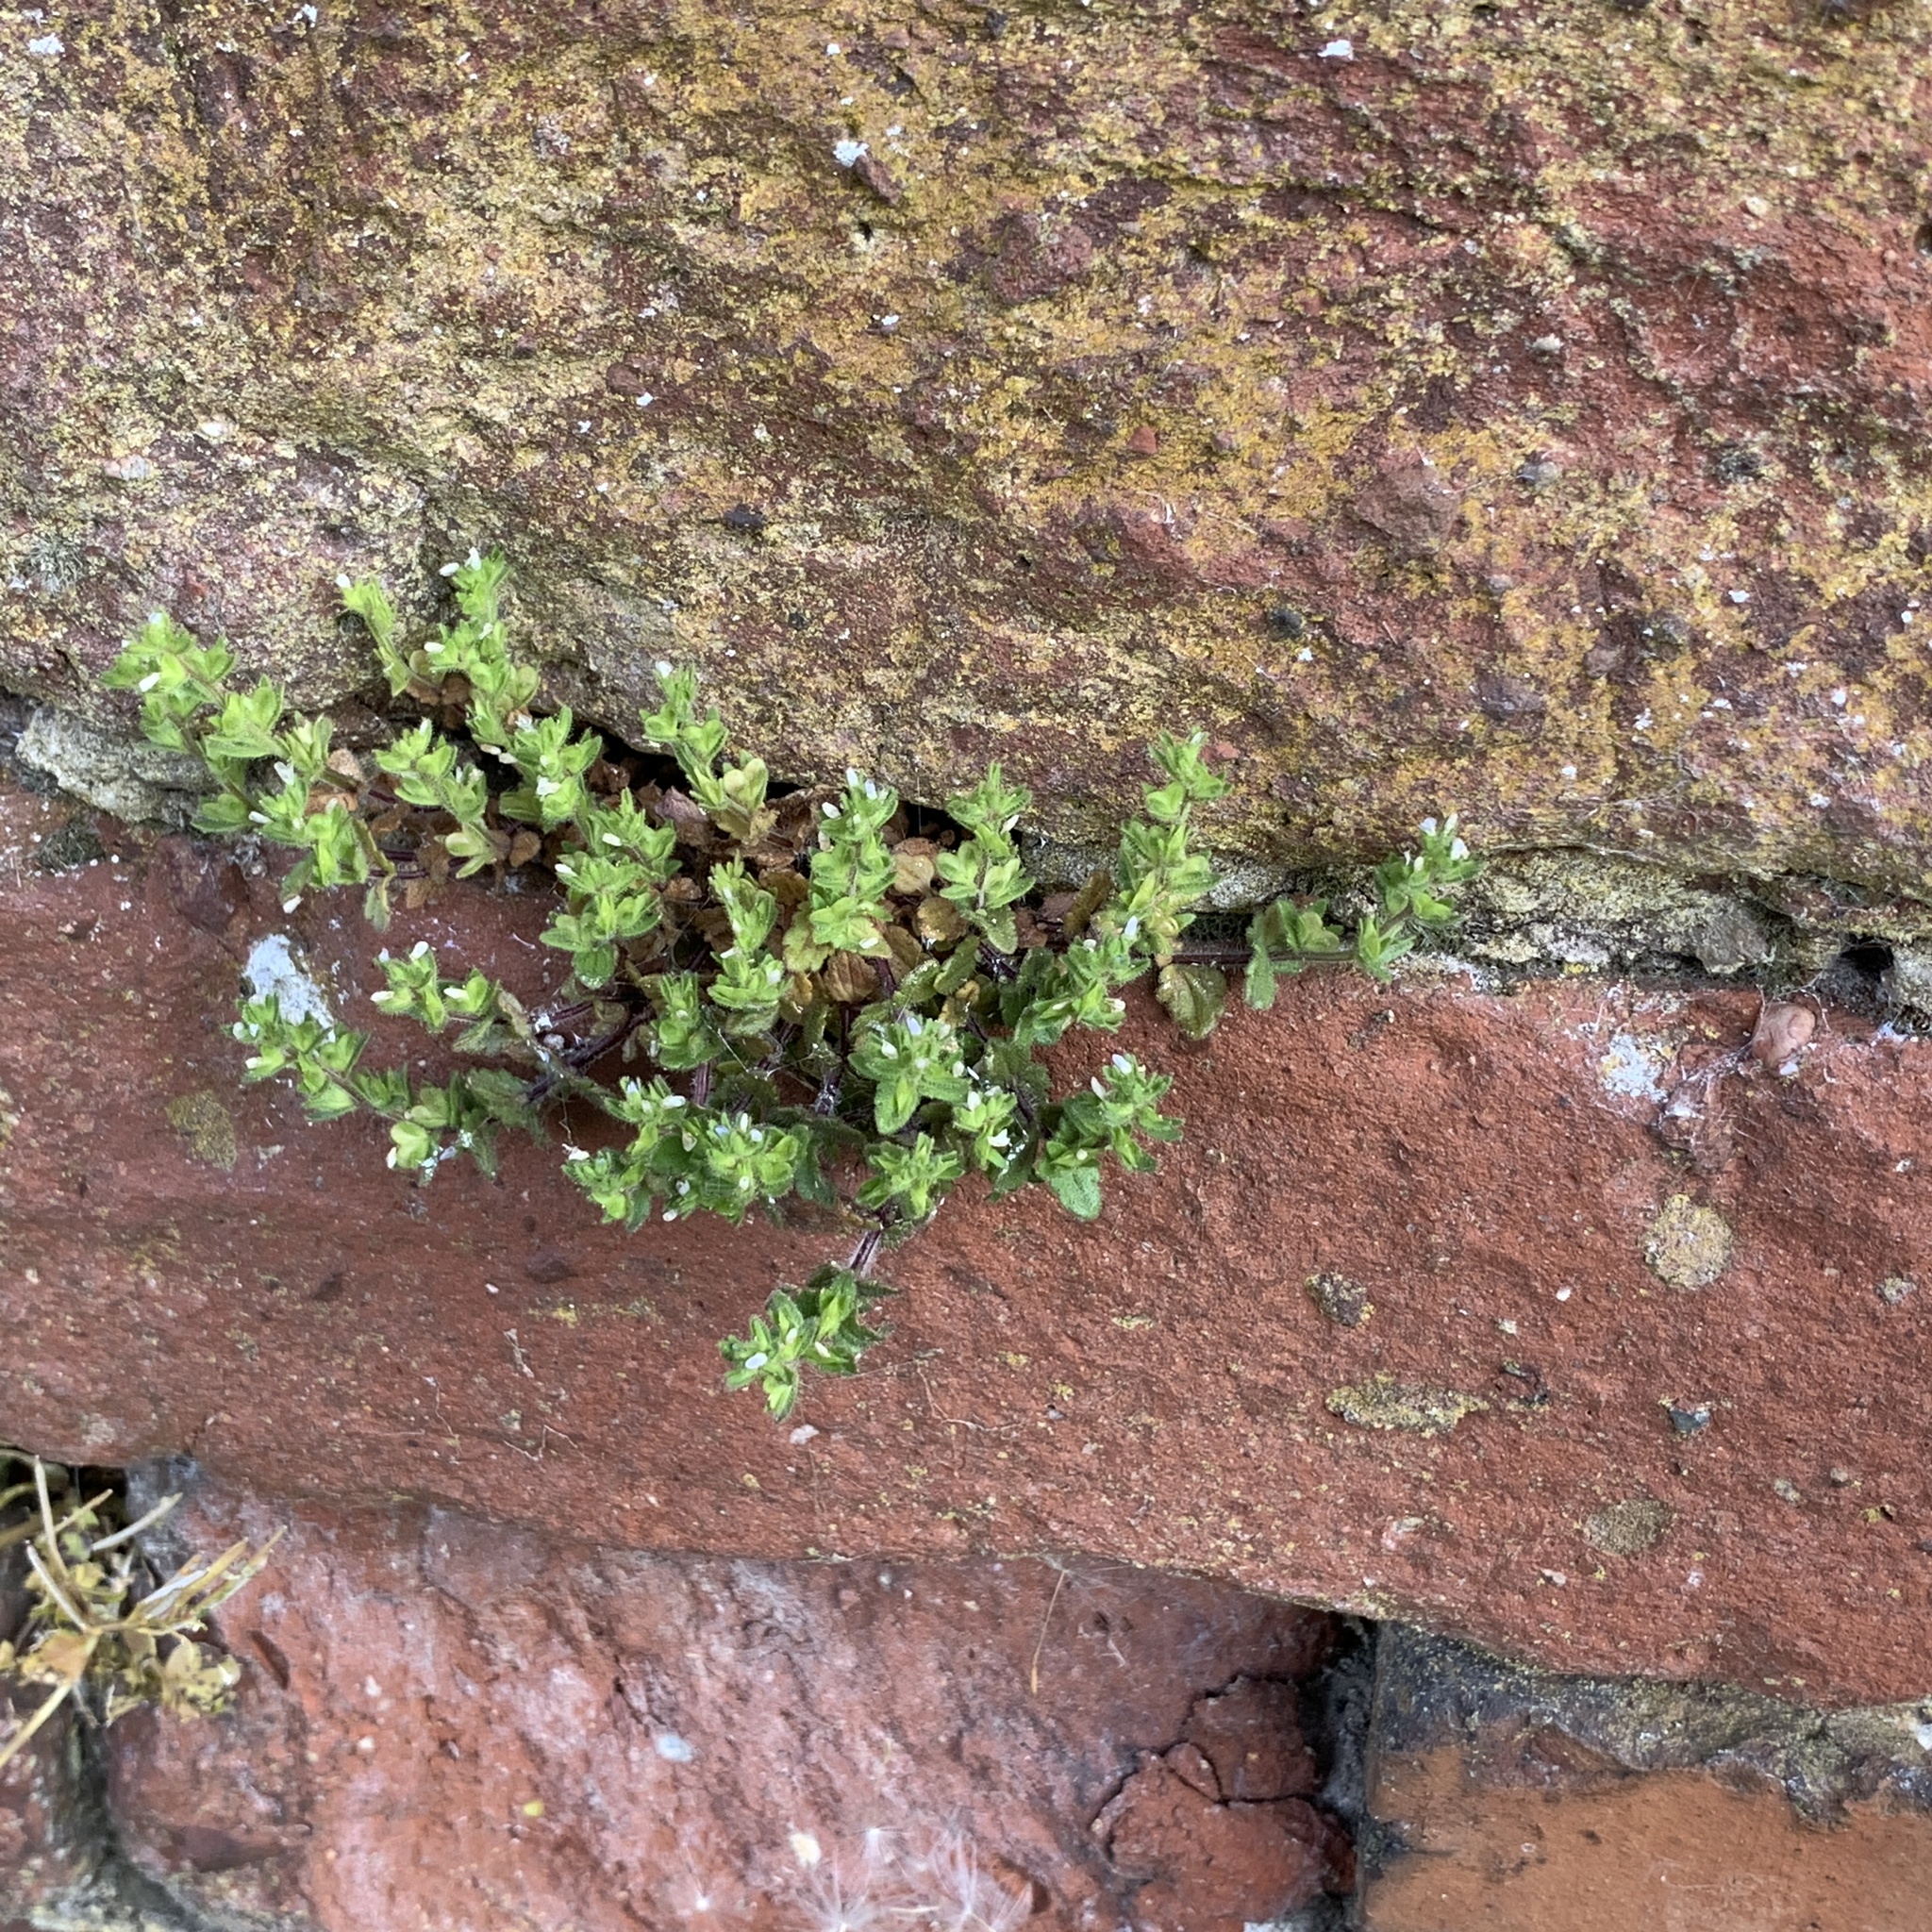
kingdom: Plantae
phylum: Tracheophyta
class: Magnoliopsida
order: Lamiales
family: Plantaginaceae
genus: Veronica
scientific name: Veronica arvensis
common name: Corn speedwell
